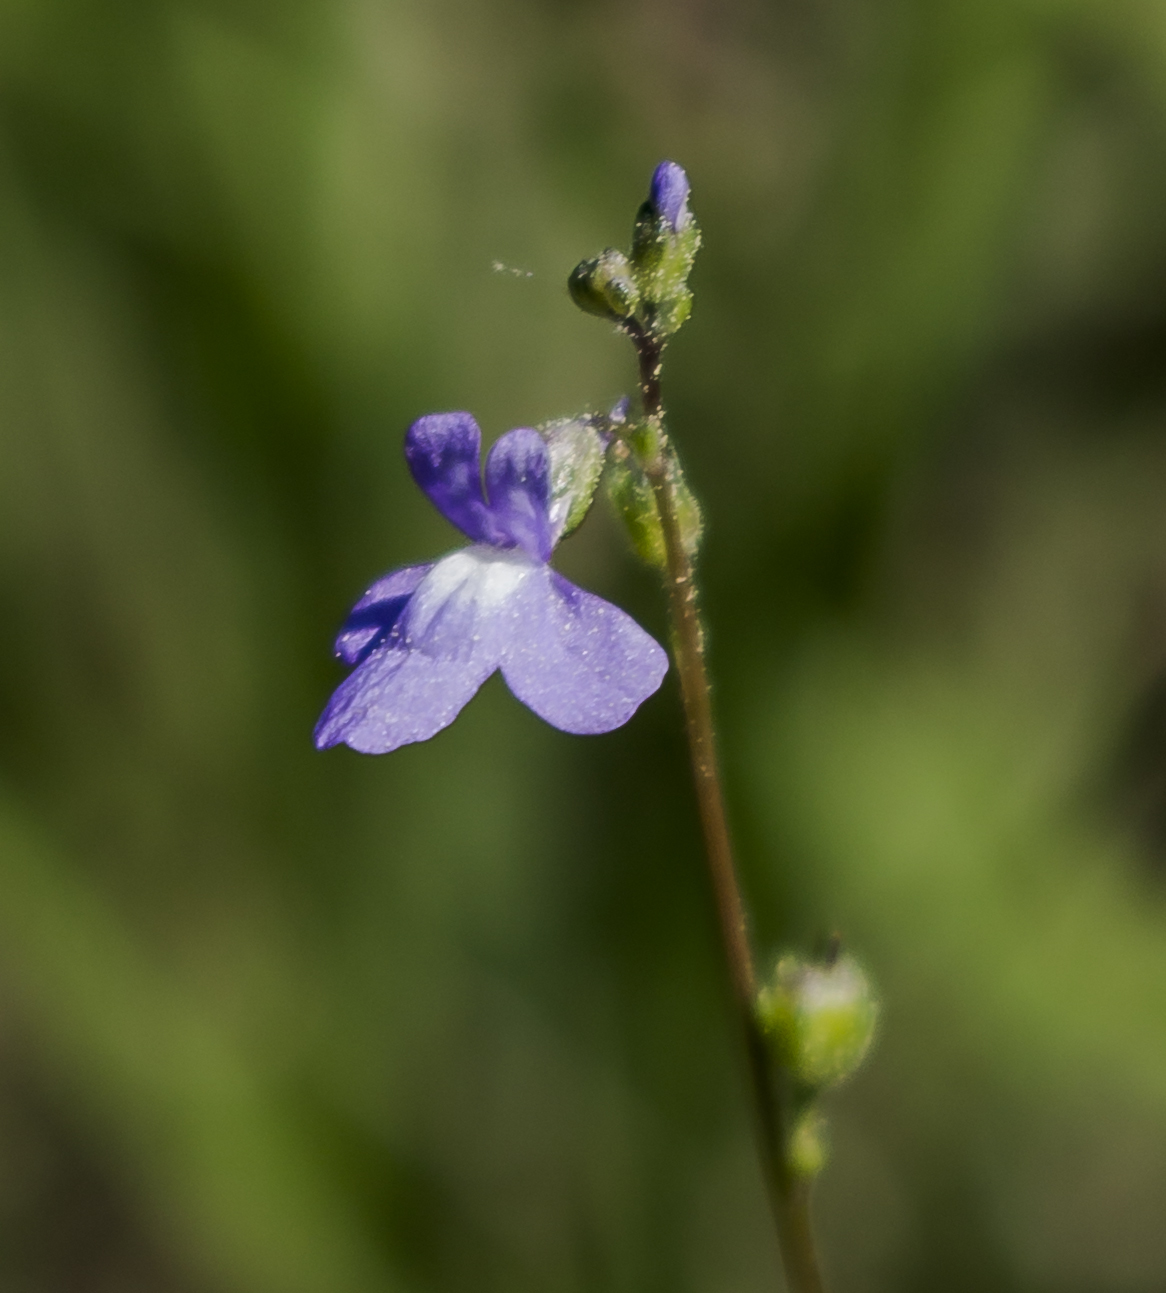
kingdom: Plantae
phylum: Tracheophyta
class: Magnoliopsida
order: Lamiales
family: Plantaginaceae
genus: Nuttallanthus
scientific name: Nuttallanthus canadensis
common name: Blue toadflax
